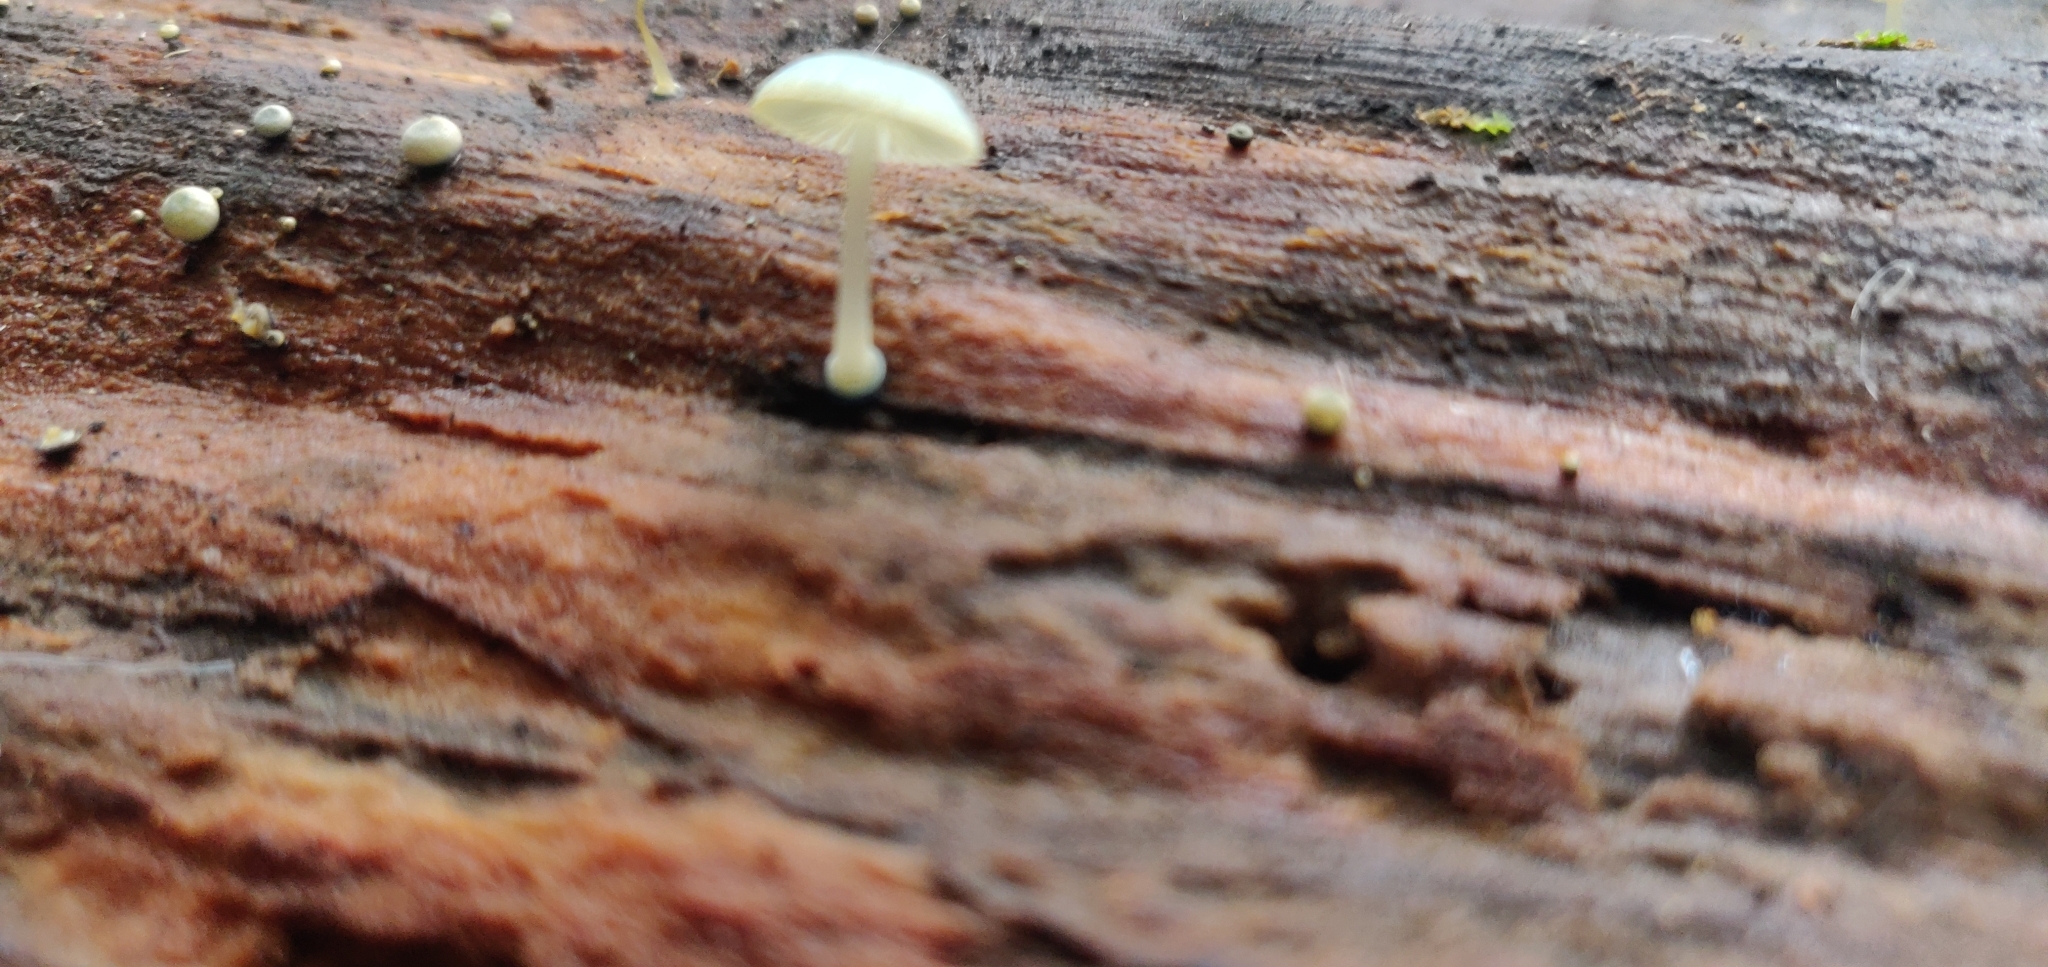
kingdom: Fungi
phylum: Basidiomycota
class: Agaricomycetes
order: Agaricales
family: Mycenaceae
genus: Mycena
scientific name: Mycena interrupta
